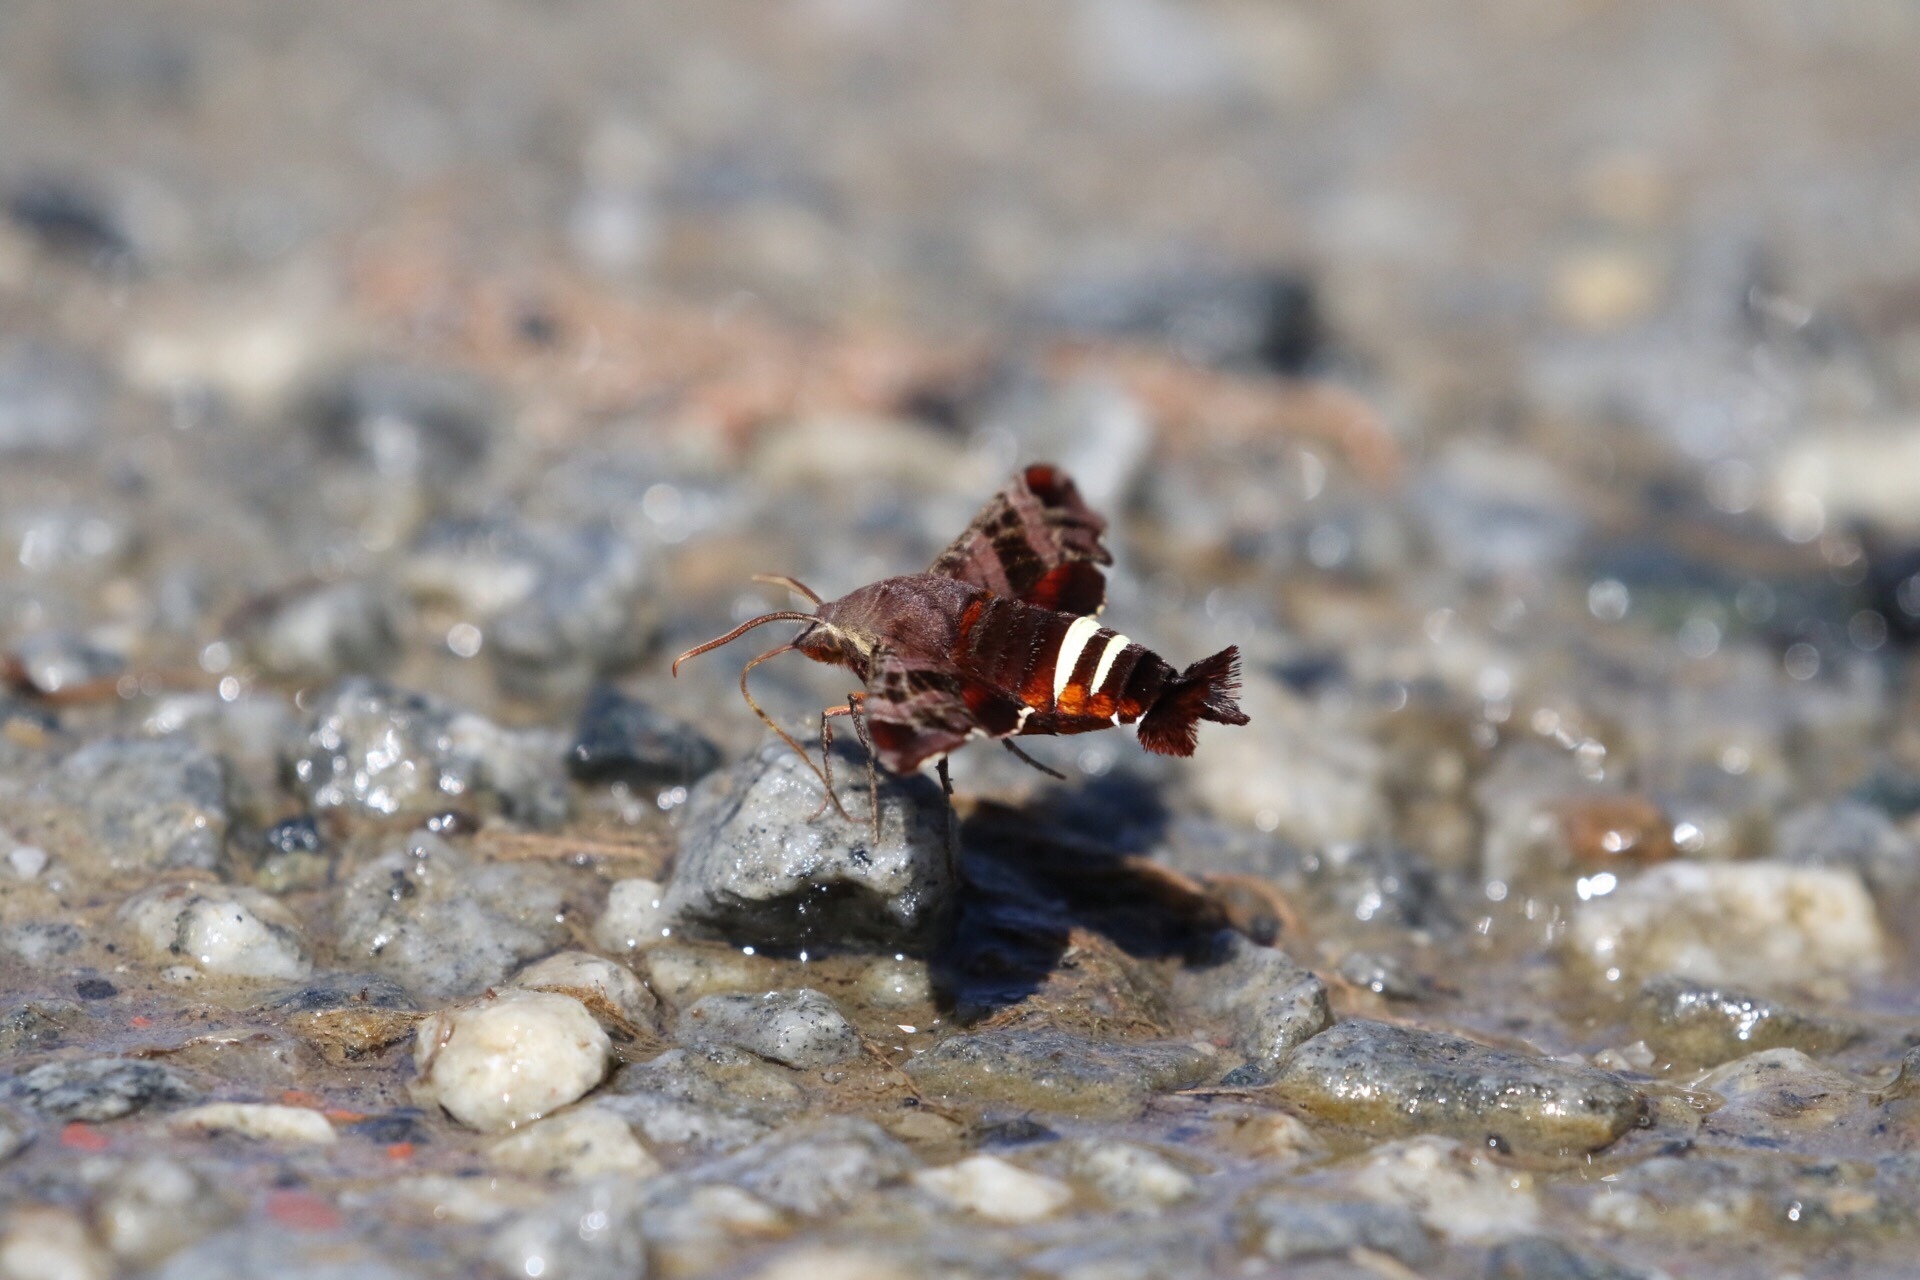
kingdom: Animalia
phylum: Arthropoda
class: Insecta
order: Lepidoptera
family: Sphingidae
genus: Amphion
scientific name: Amphion floridensis
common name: Nessus sphinx
